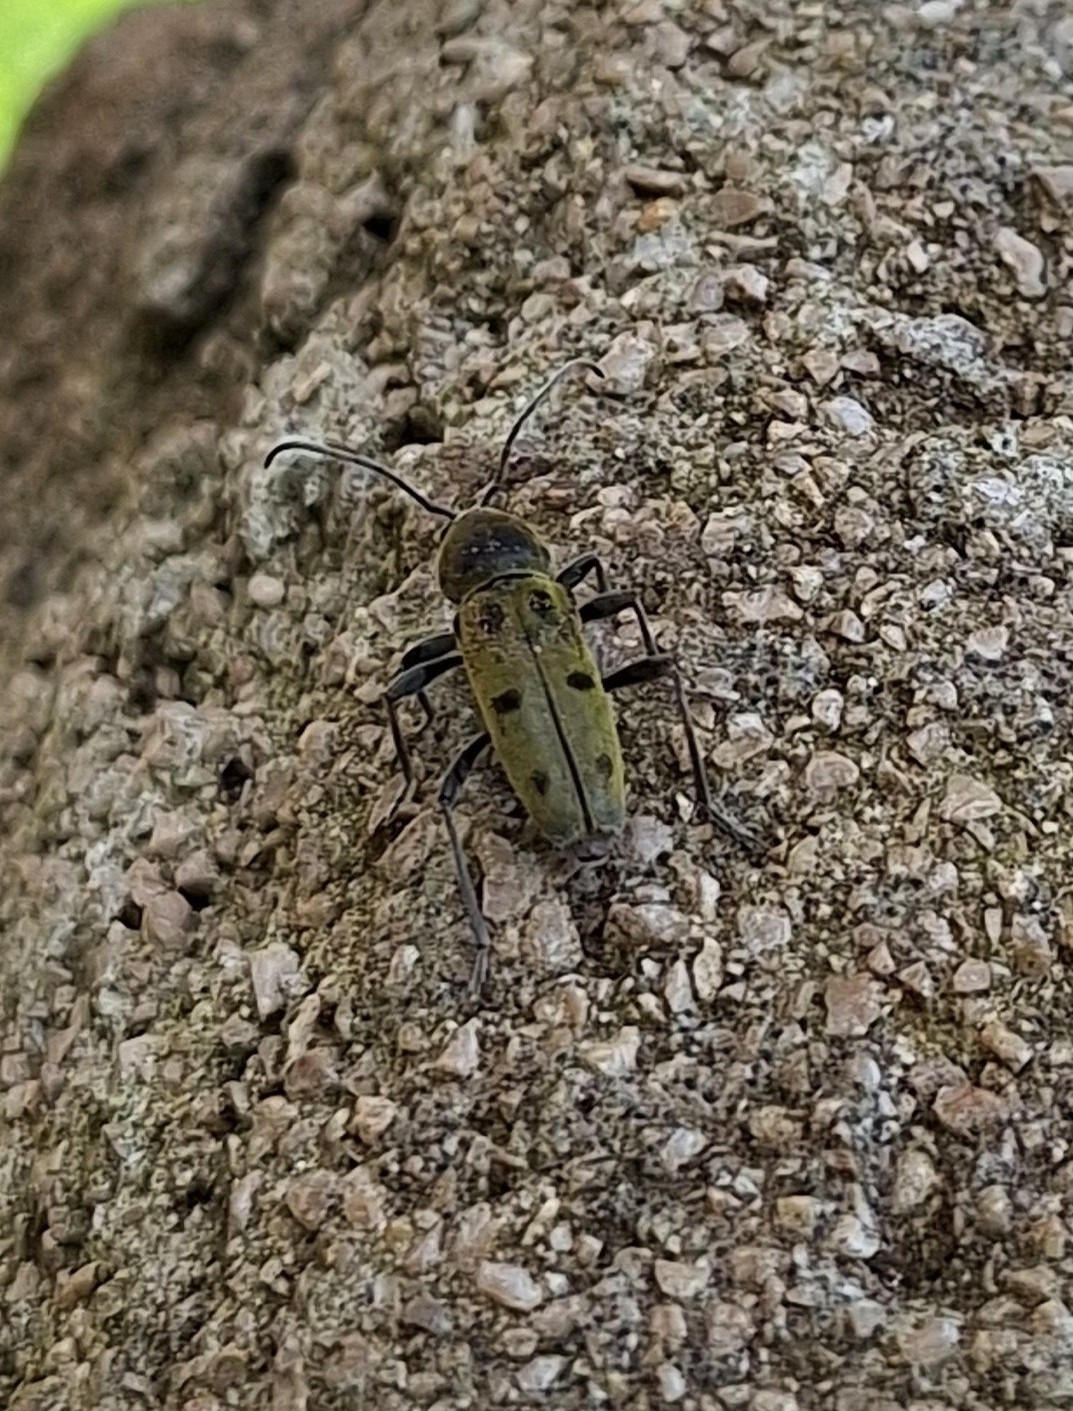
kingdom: Animalia
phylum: Arthropoda
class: Insecta
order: Coleoptera
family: Cerambycidae
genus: Chlorophorus
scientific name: Chlorophorus glabromaculatus
